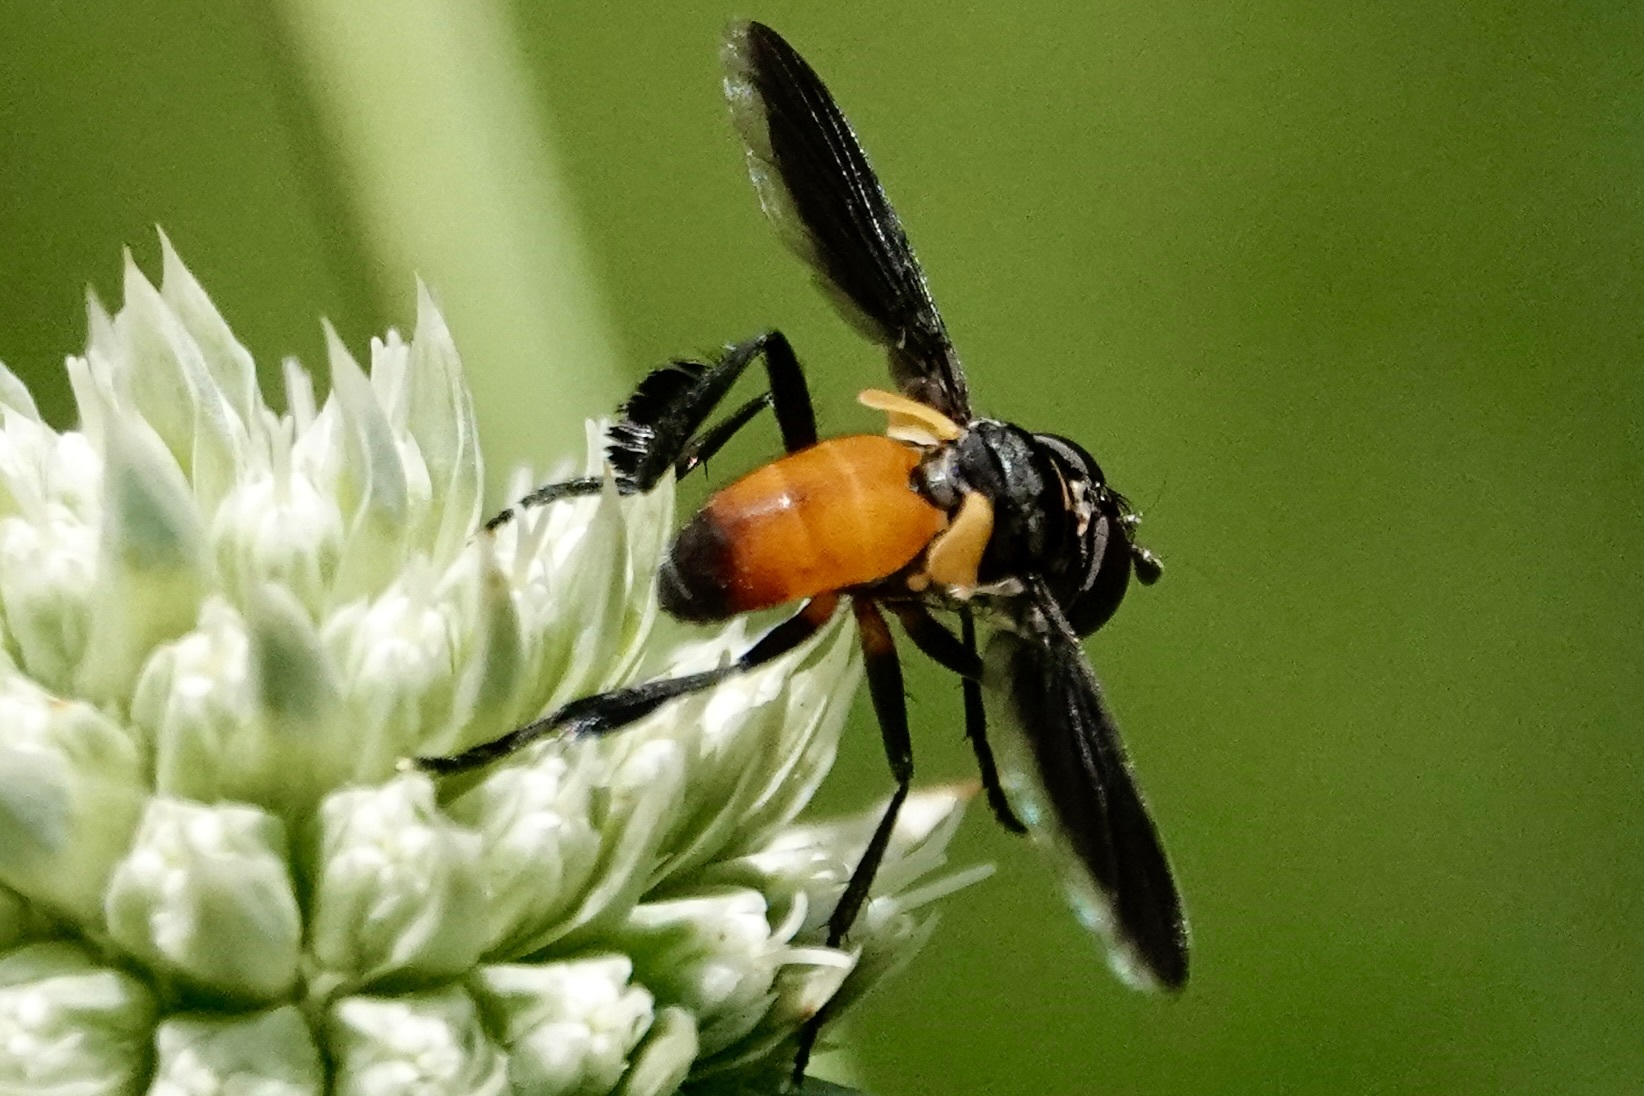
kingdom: Animalia
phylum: Arthropoda
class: Insecta
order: Diptera
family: Tachinidae
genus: Trichopoda
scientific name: Trichopoda pennipes
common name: Tachinid fly
